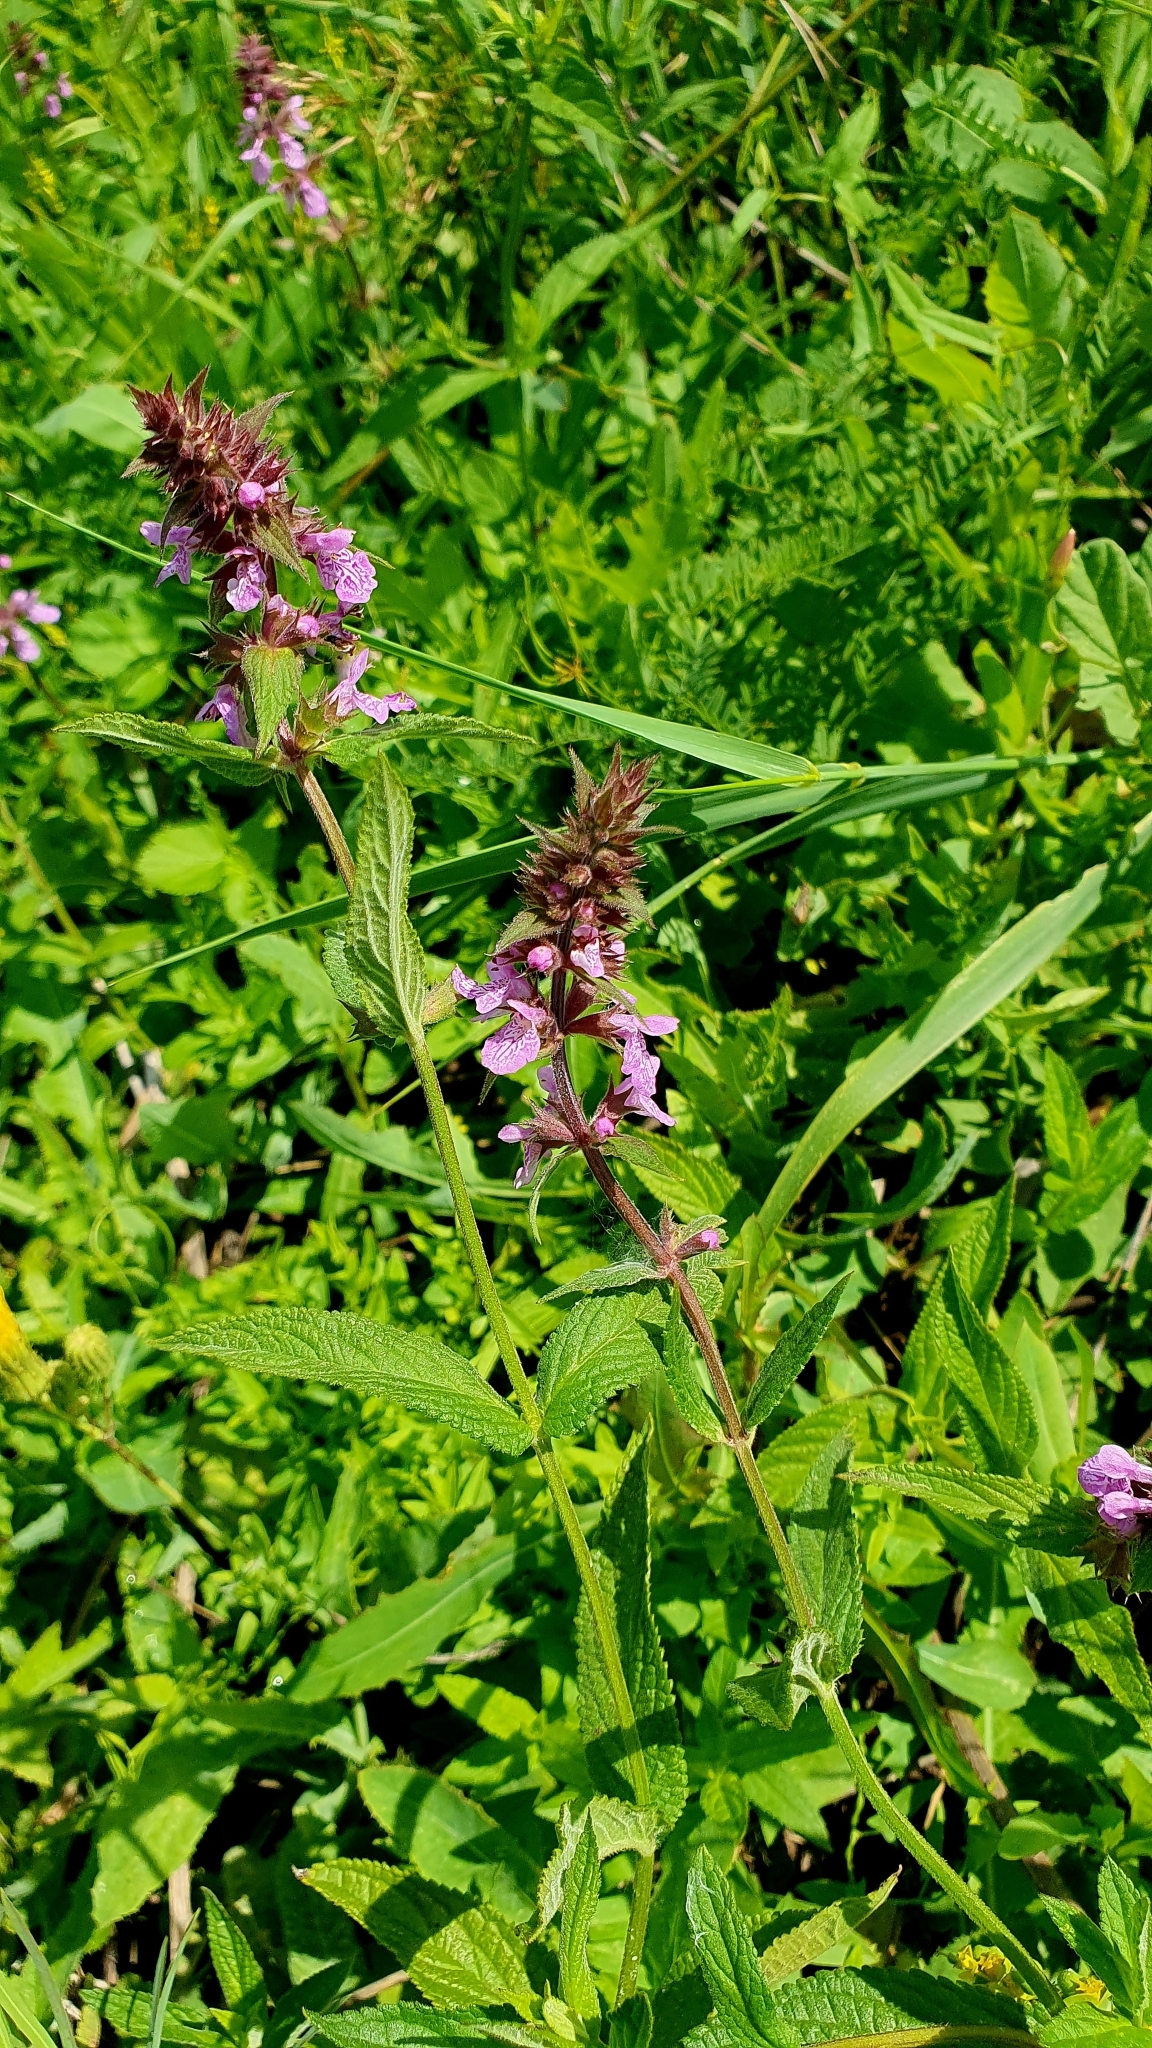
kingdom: Plantae
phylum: Tracheophyta
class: Magnoliopsida
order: Lamiales
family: Lamiaceae
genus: Stachys
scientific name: Stachys palustris
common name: Marsh woundwort
